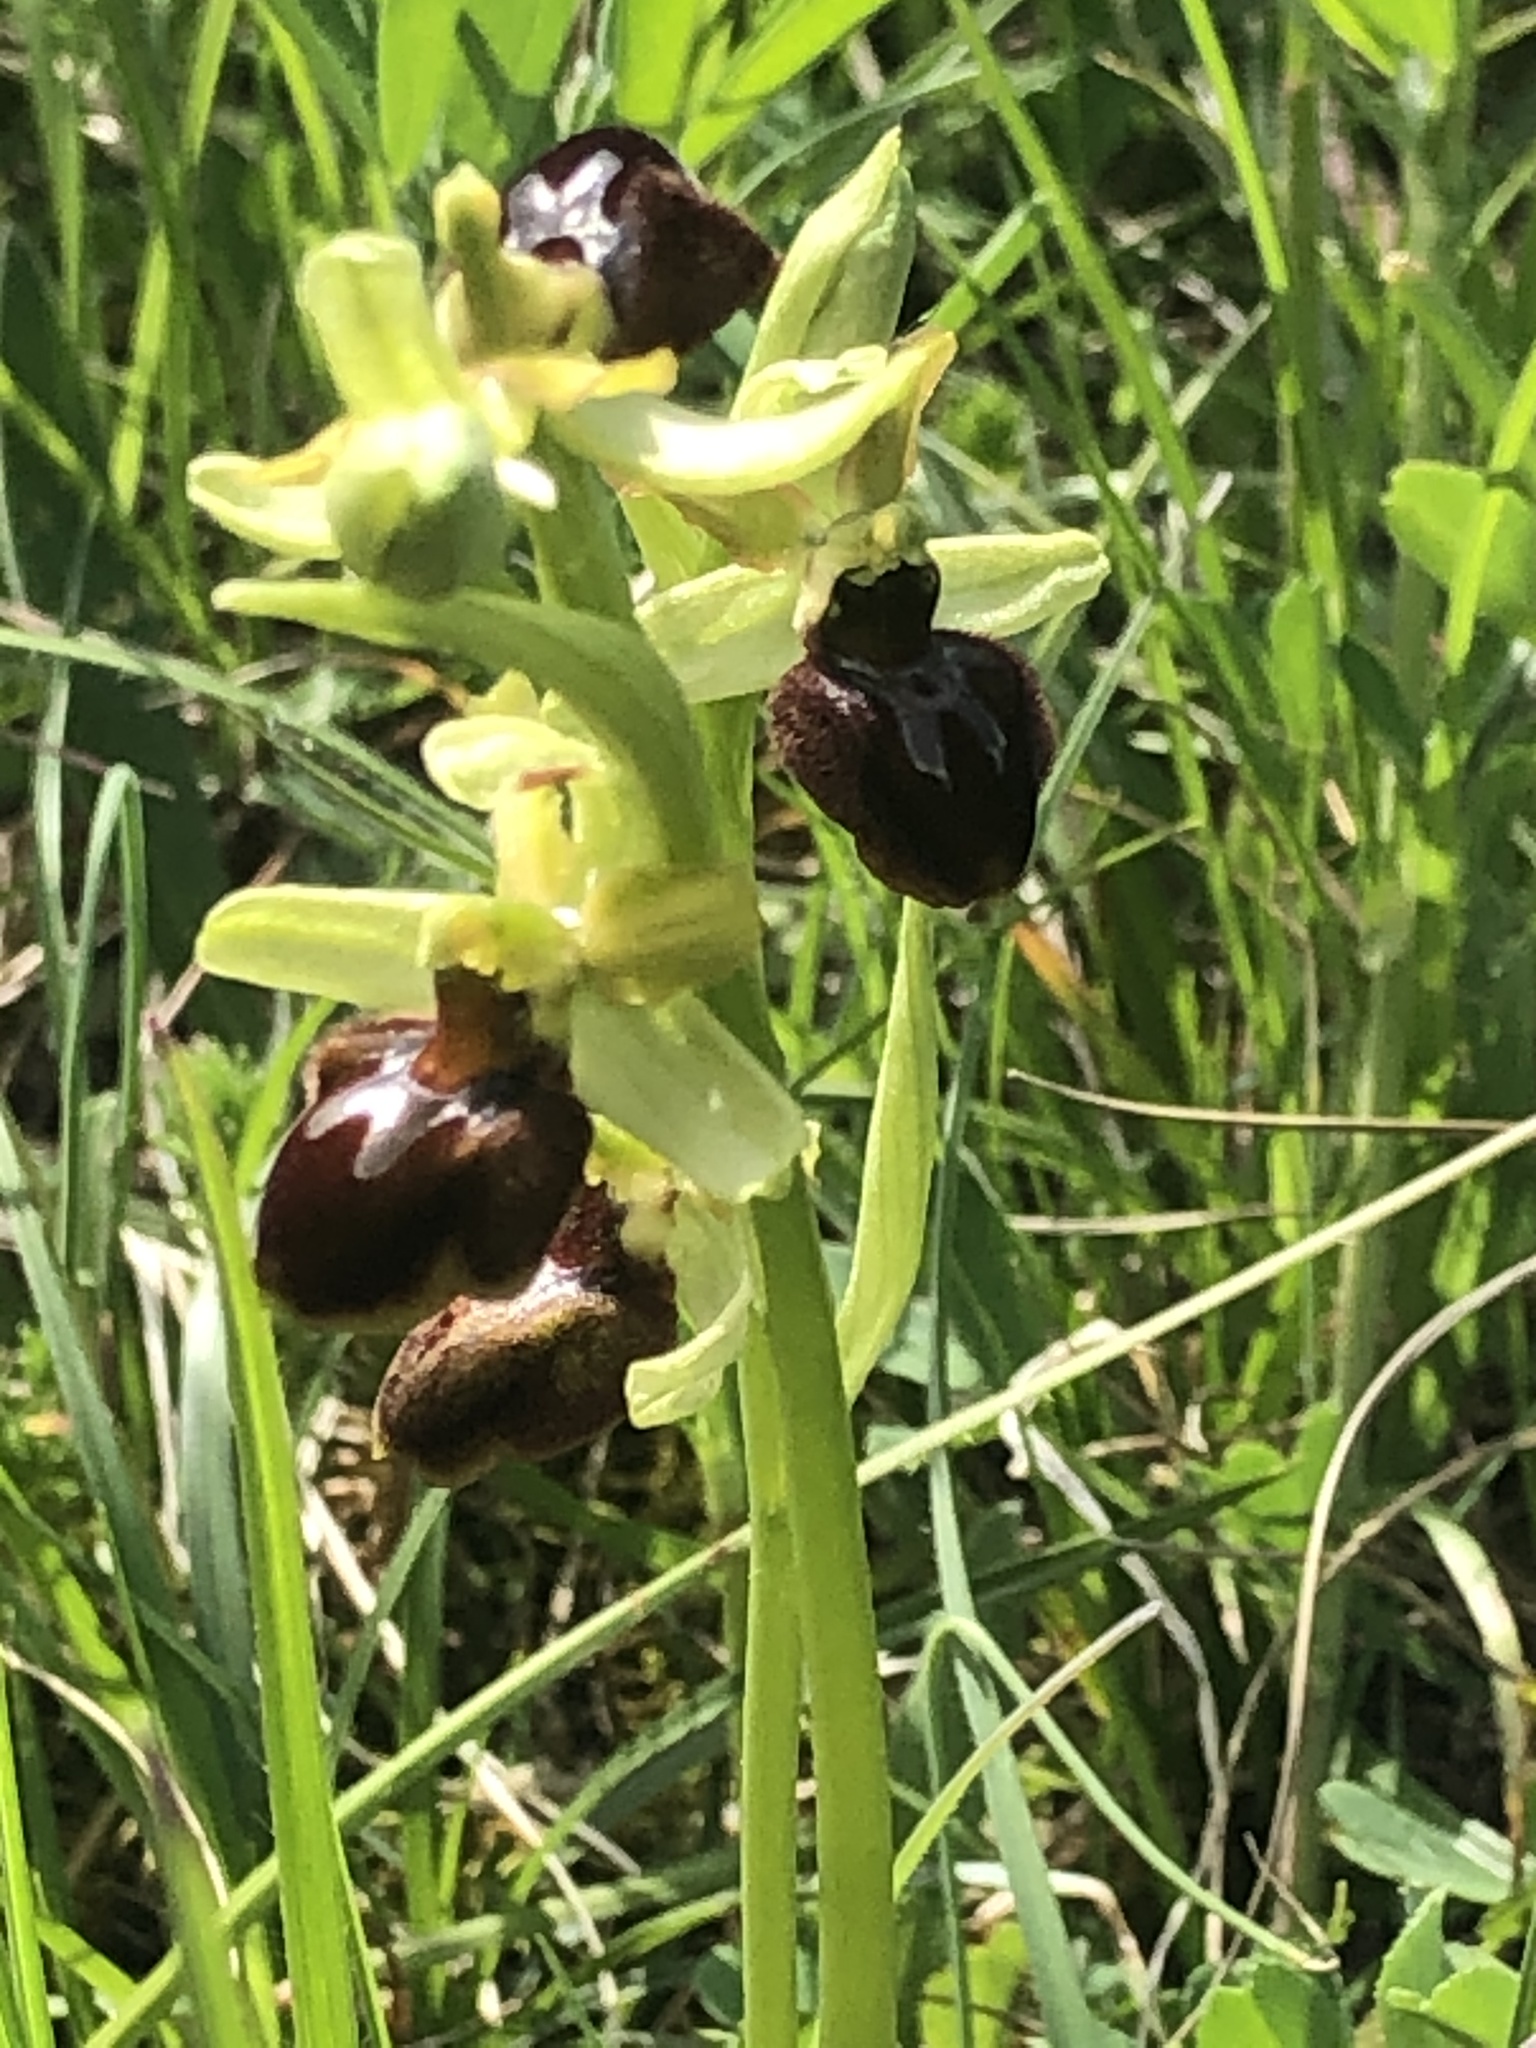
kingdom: Plantae
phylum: Tracheophyta
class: Liliopsida
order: Asparagales
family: Orchidaceae
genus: Ophrys
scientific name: Ophrys sphegodes
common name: Early spider-orchid
